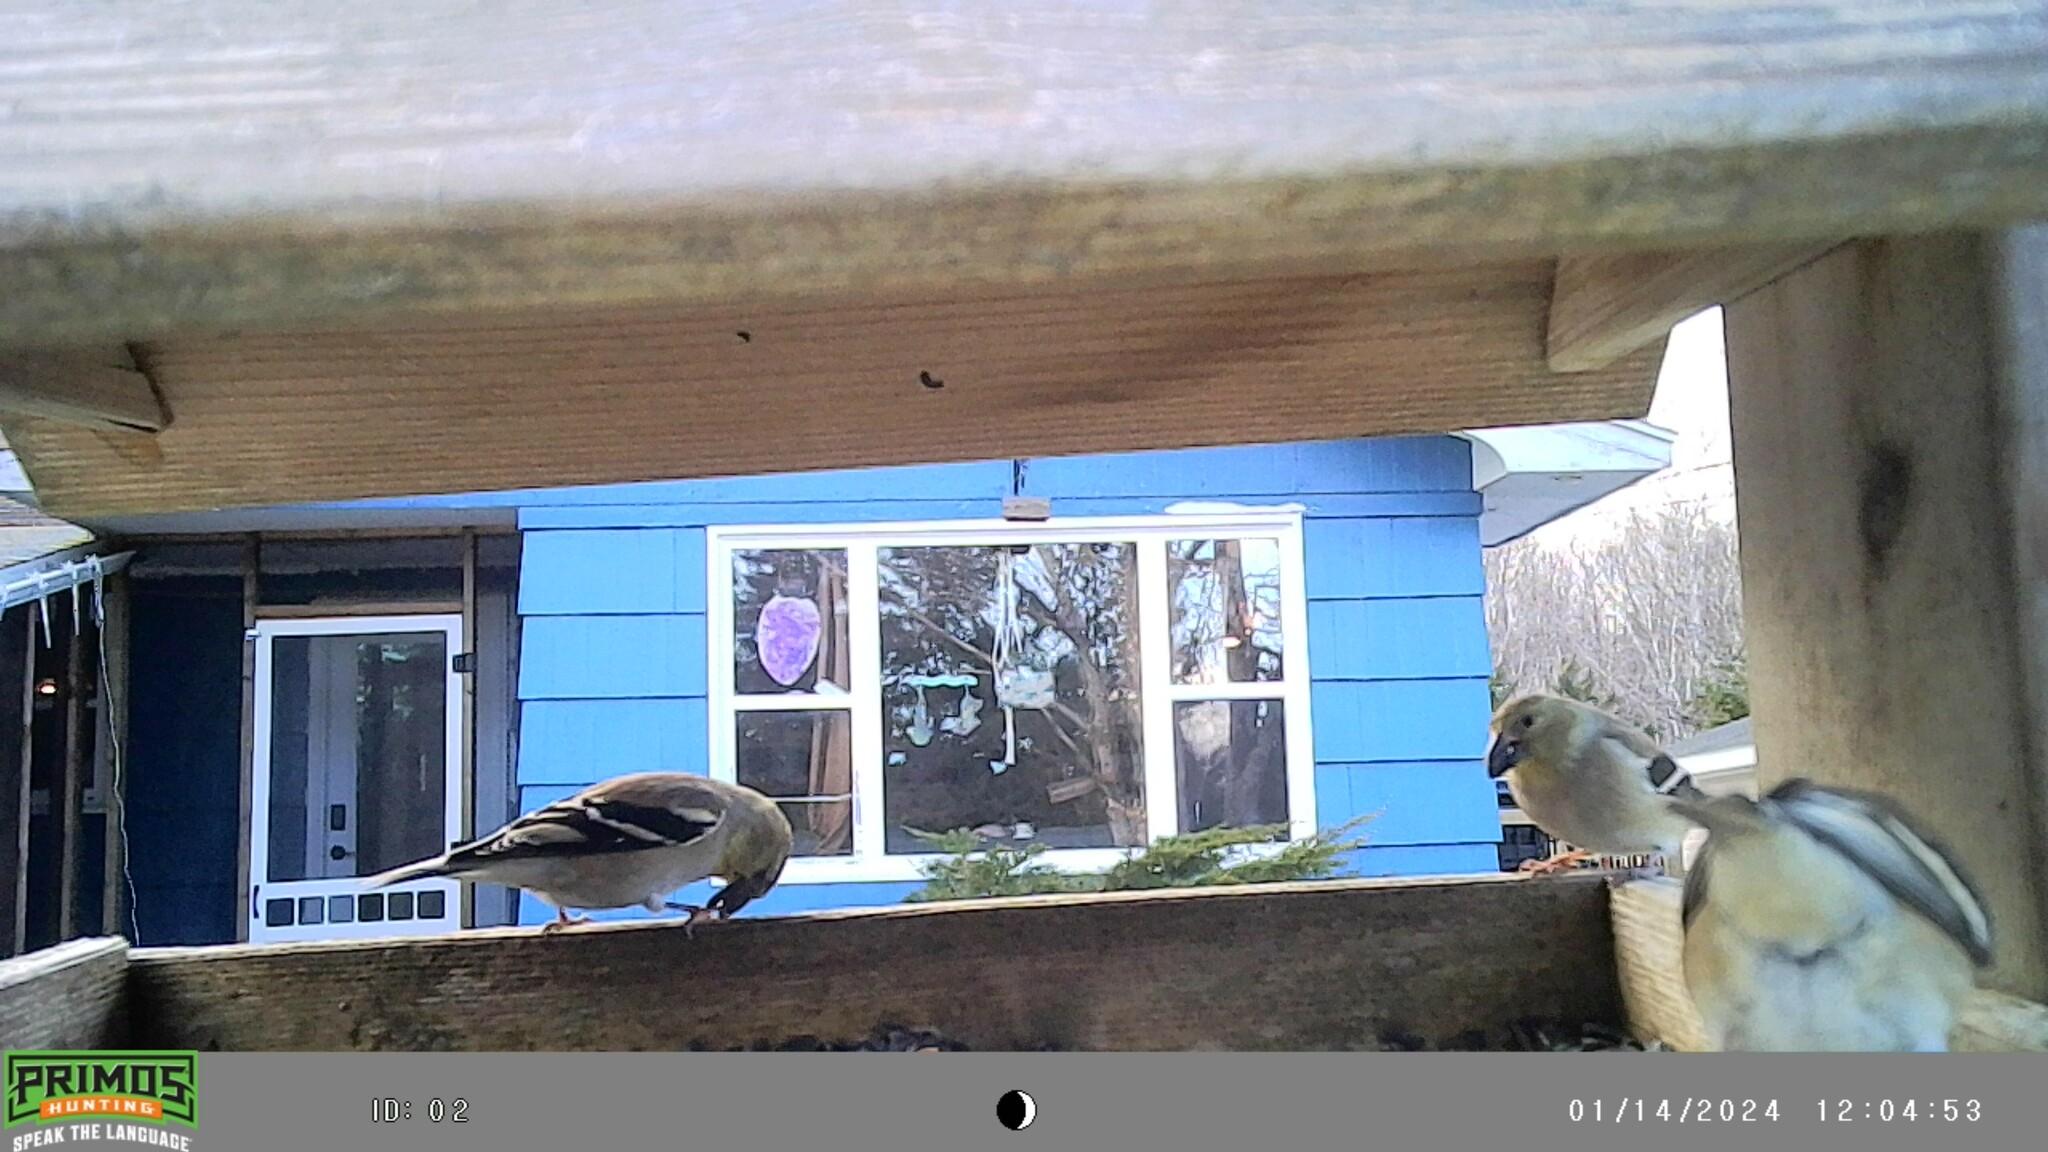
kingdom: Animalia
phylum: Chordata
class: Aves
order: Passeriformes
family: Fringillidae
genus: Spinus
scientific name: Spinus tristis
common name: American goldfinch
